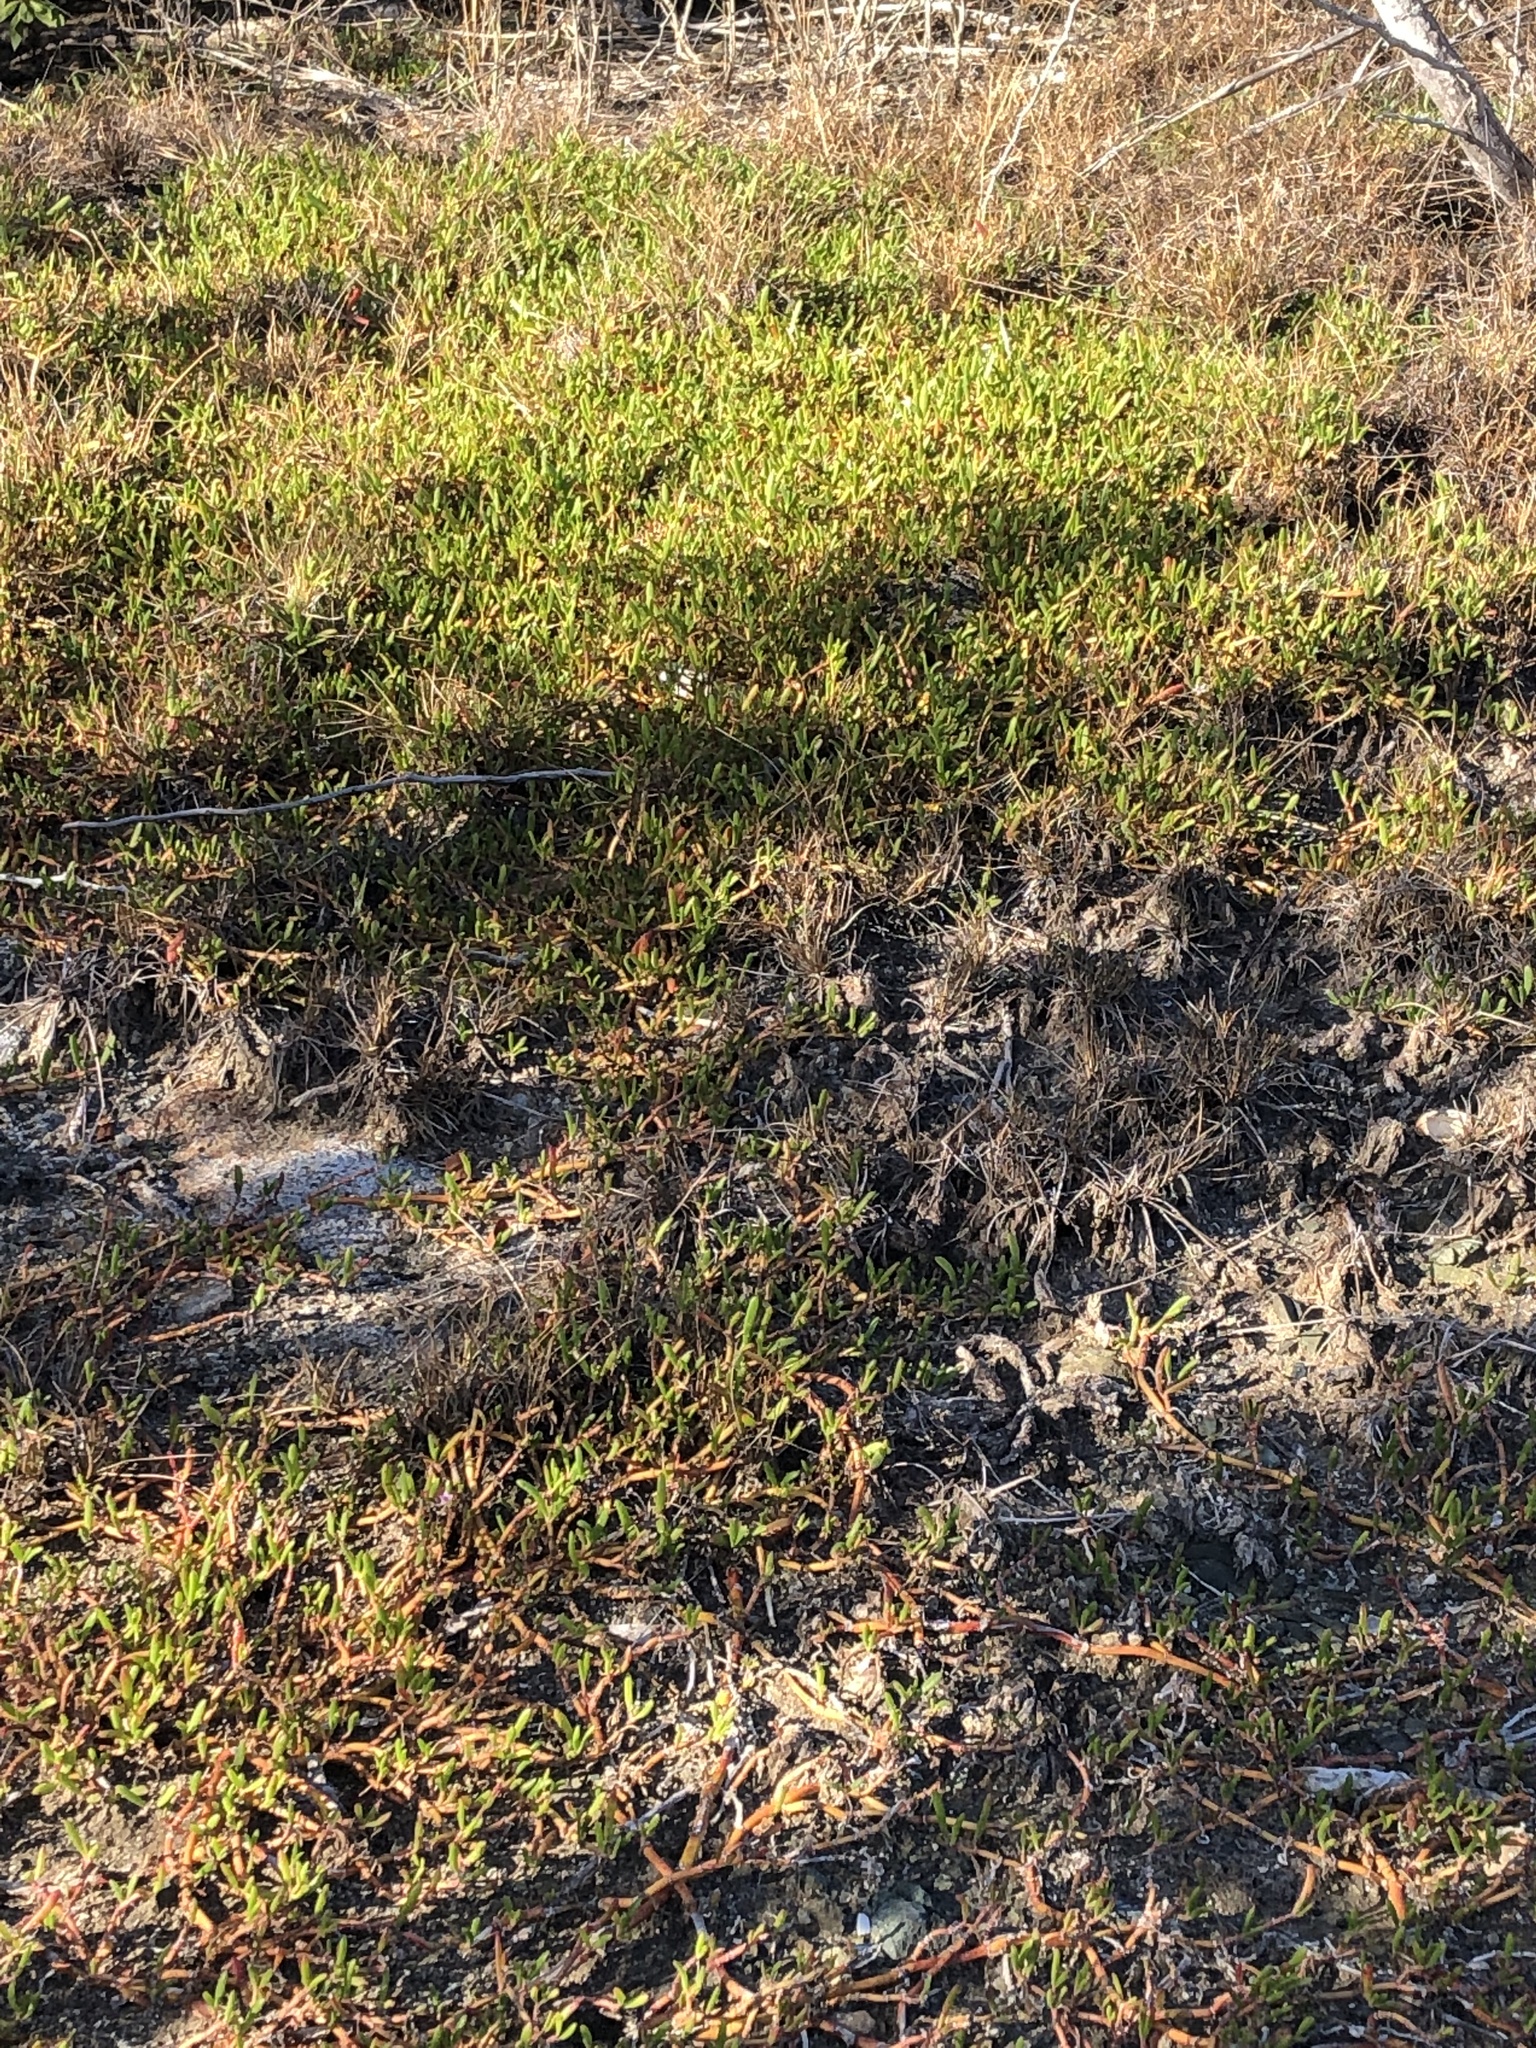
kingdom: Plantae
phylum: Tracheophyta
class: Magnoliopsida
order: Caryophyllales
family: Aizoaceae
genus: Sesuvium
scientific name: Sesuvium portulacastrum
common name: Sea-purslane
